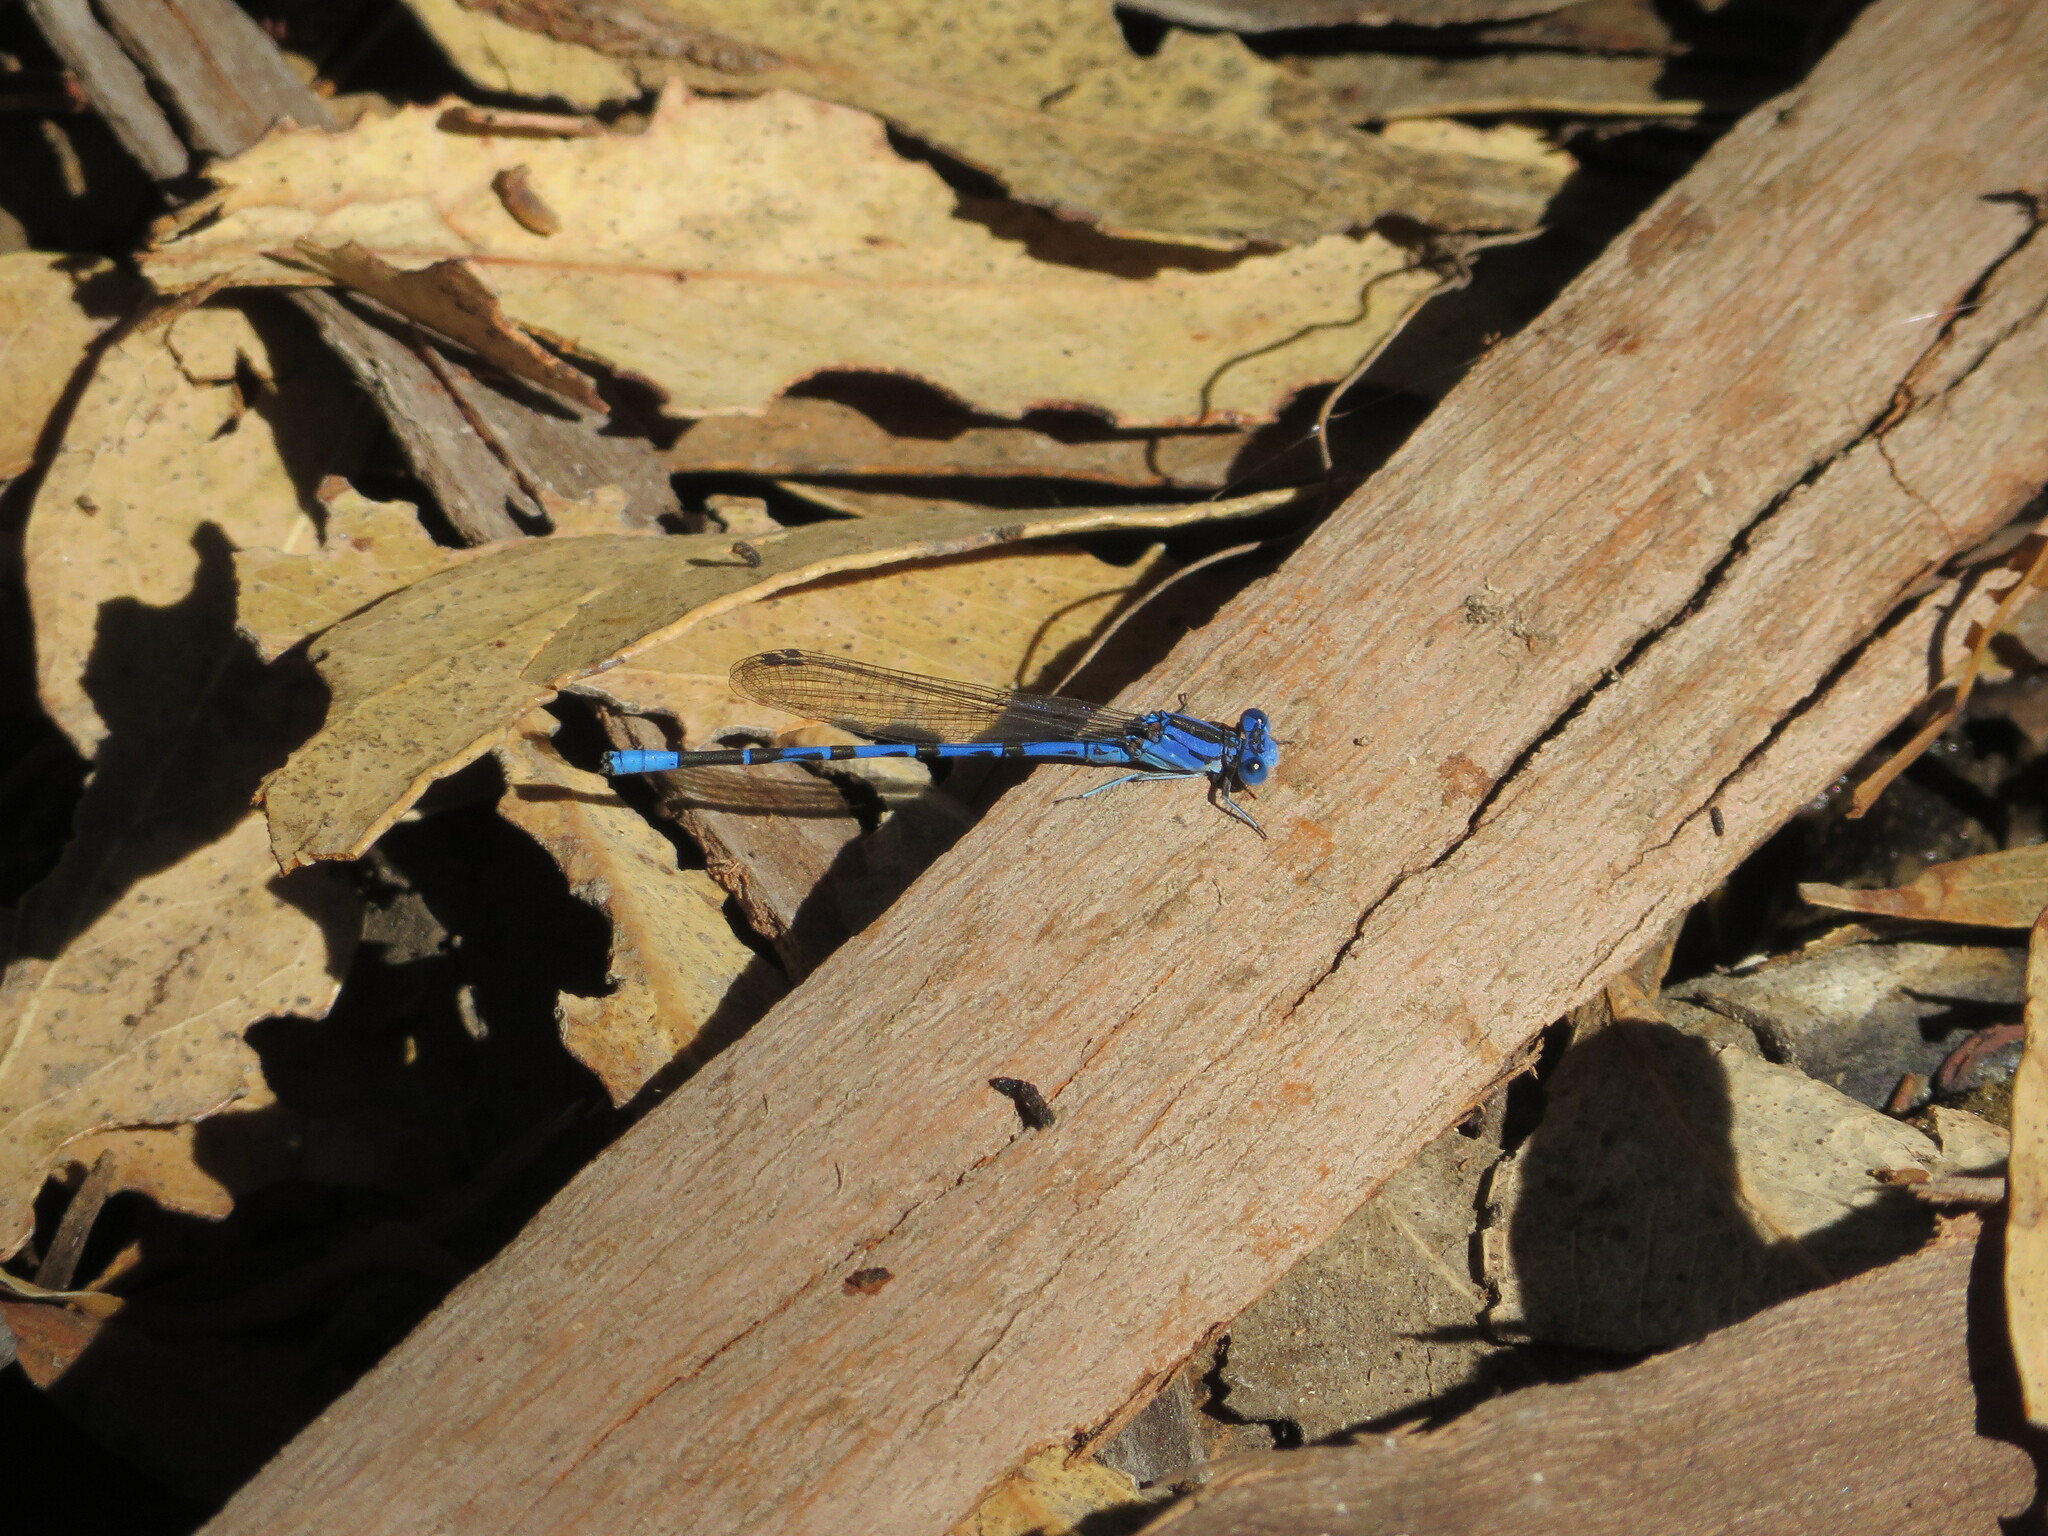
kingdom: Animalia
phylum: Arthropoda
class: Insecta
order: Odonata
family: Coenagrionidae
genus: Argia
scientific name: Argia vivida
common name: Vivid dancer
